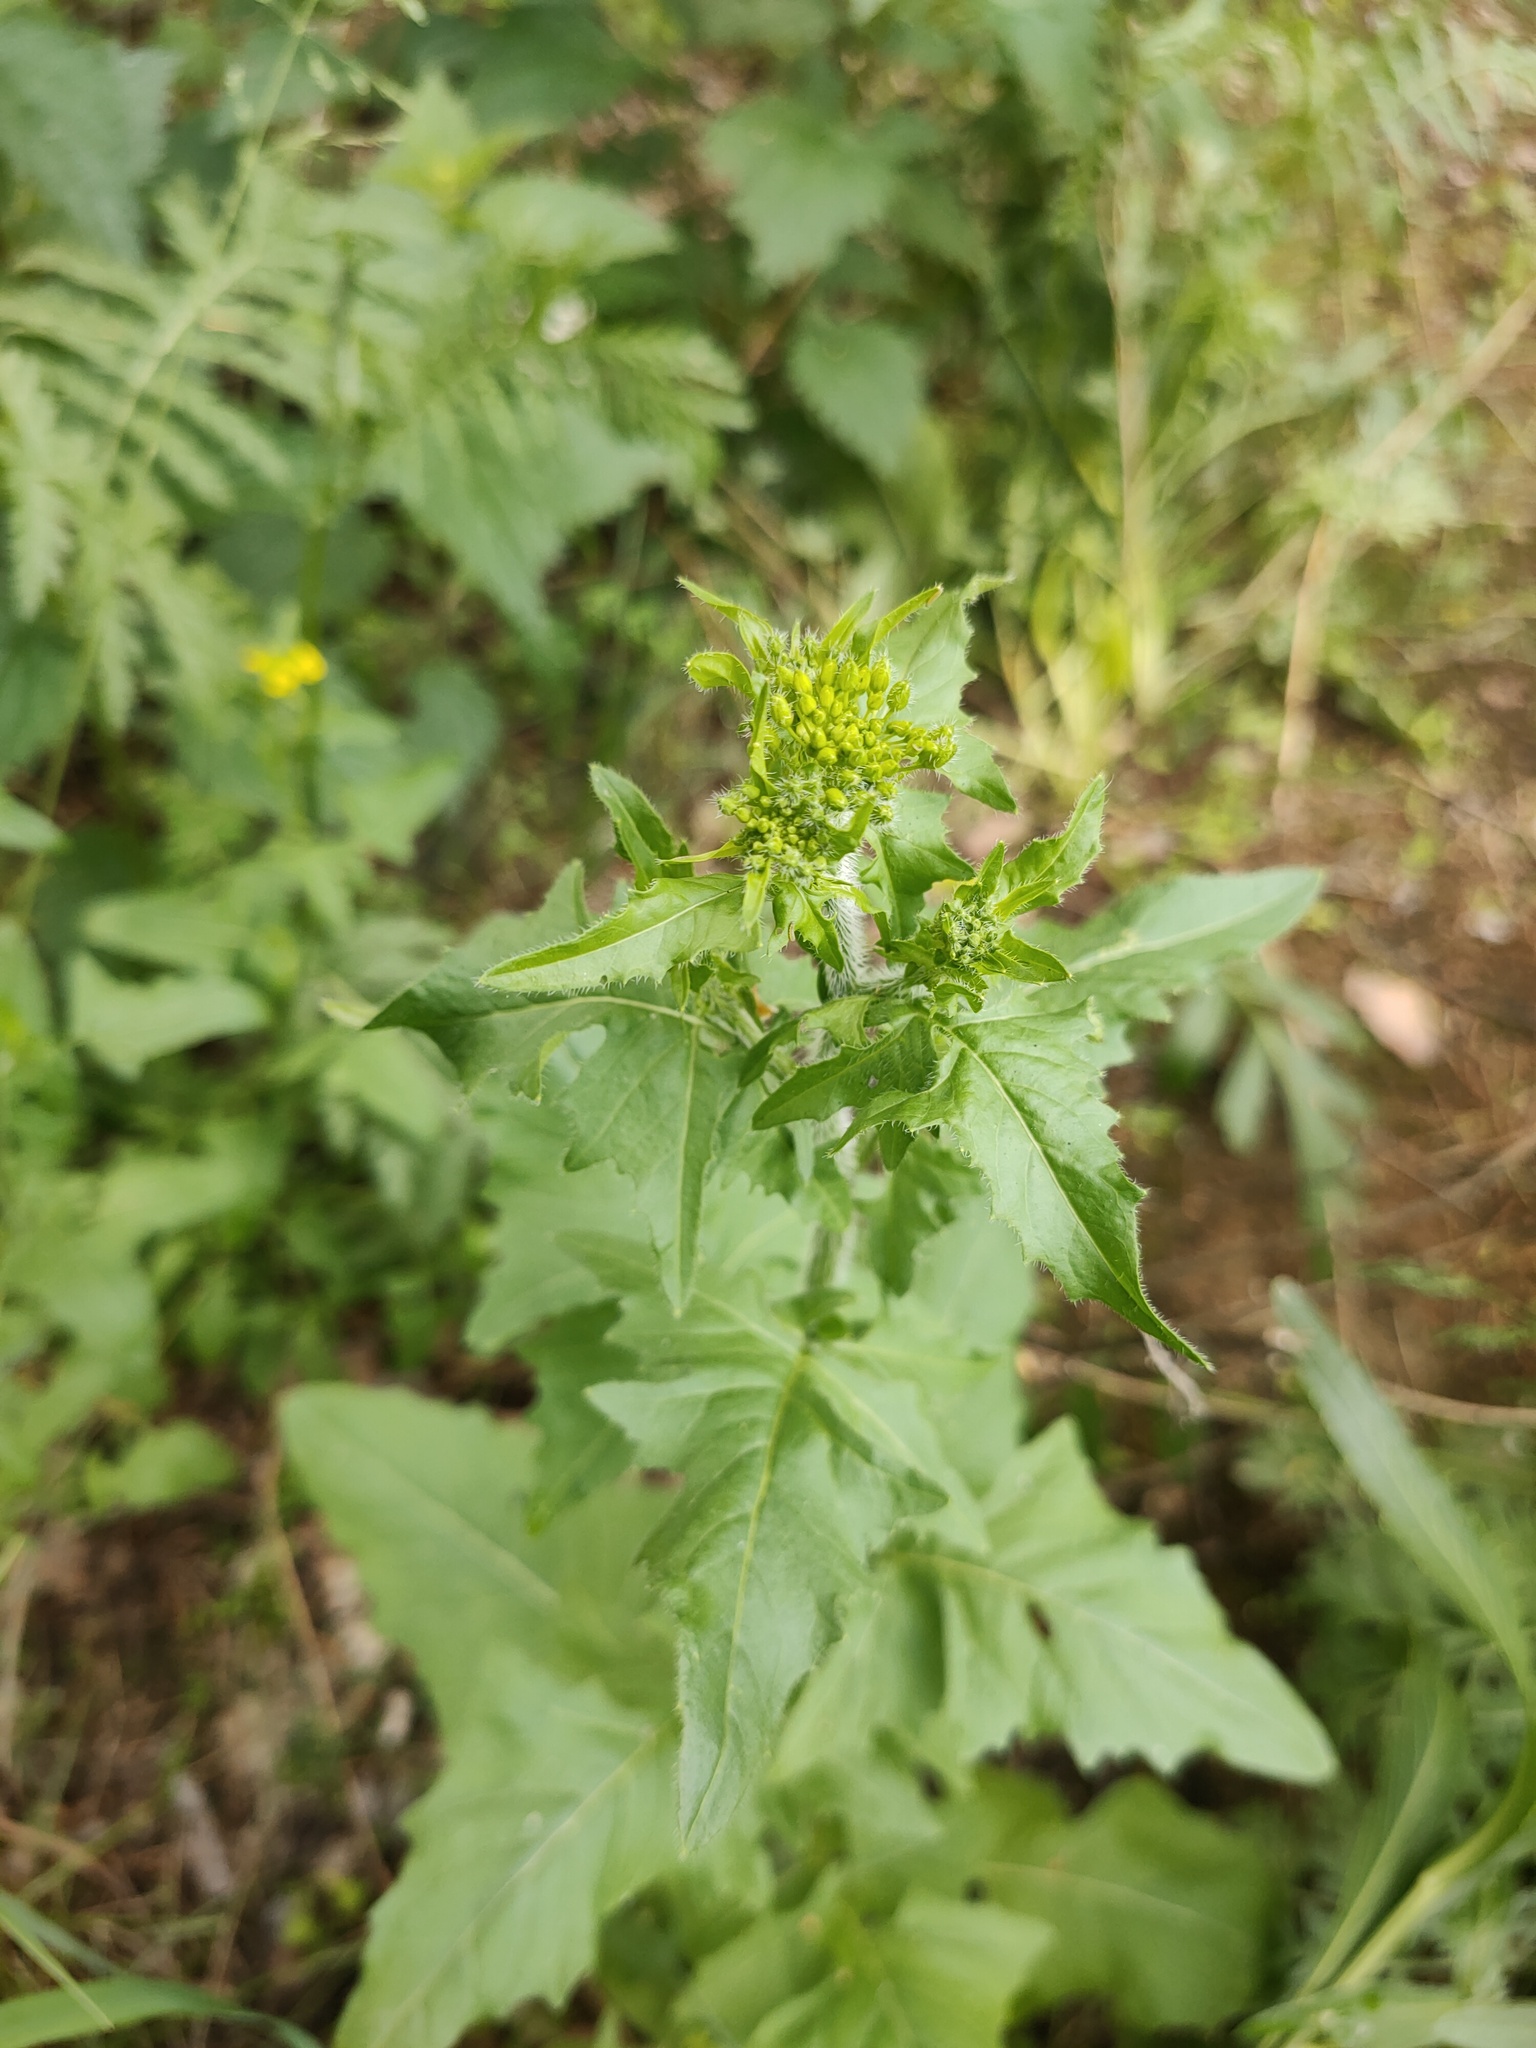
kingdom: Plantae
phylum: Tracheophyta
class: Magnoliopsida
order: Brassicales
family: Brassicaceae
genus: Sisymbrium
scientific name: Sisymbrium loeselii
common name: False london-rocket
